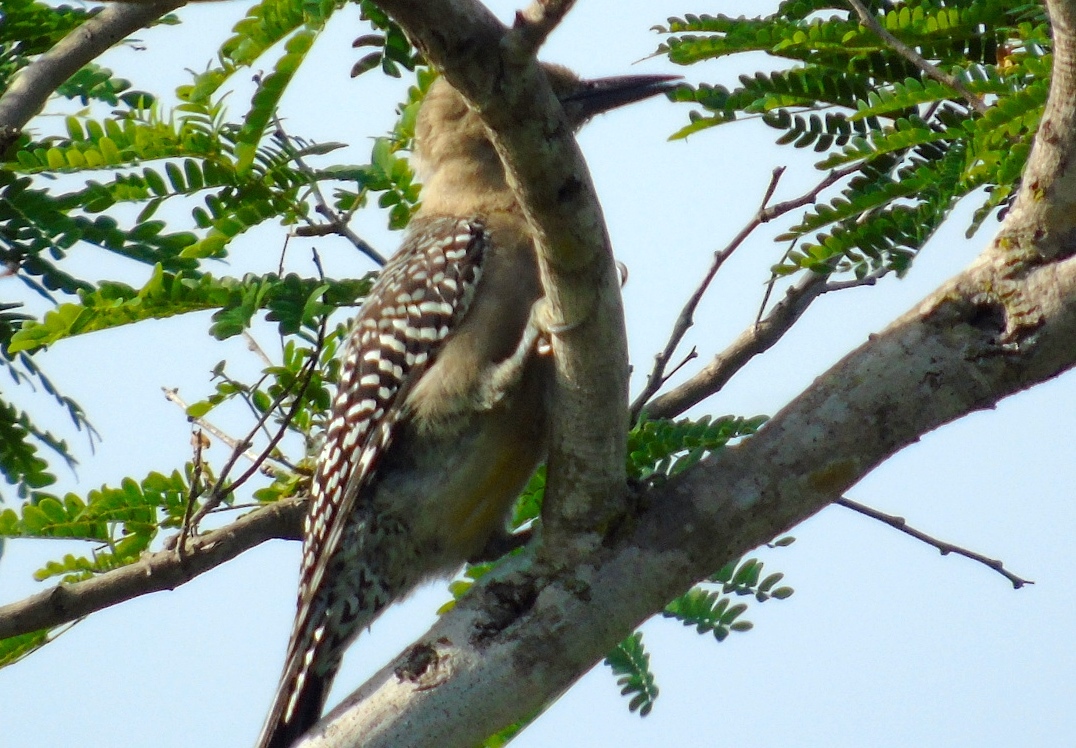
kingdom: Animalia
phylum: Chordata
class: Aves
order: Piciformes
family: Picidae
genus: Melanerpes
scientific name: Melanerpes uropygialis
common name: Gila woodpecker
